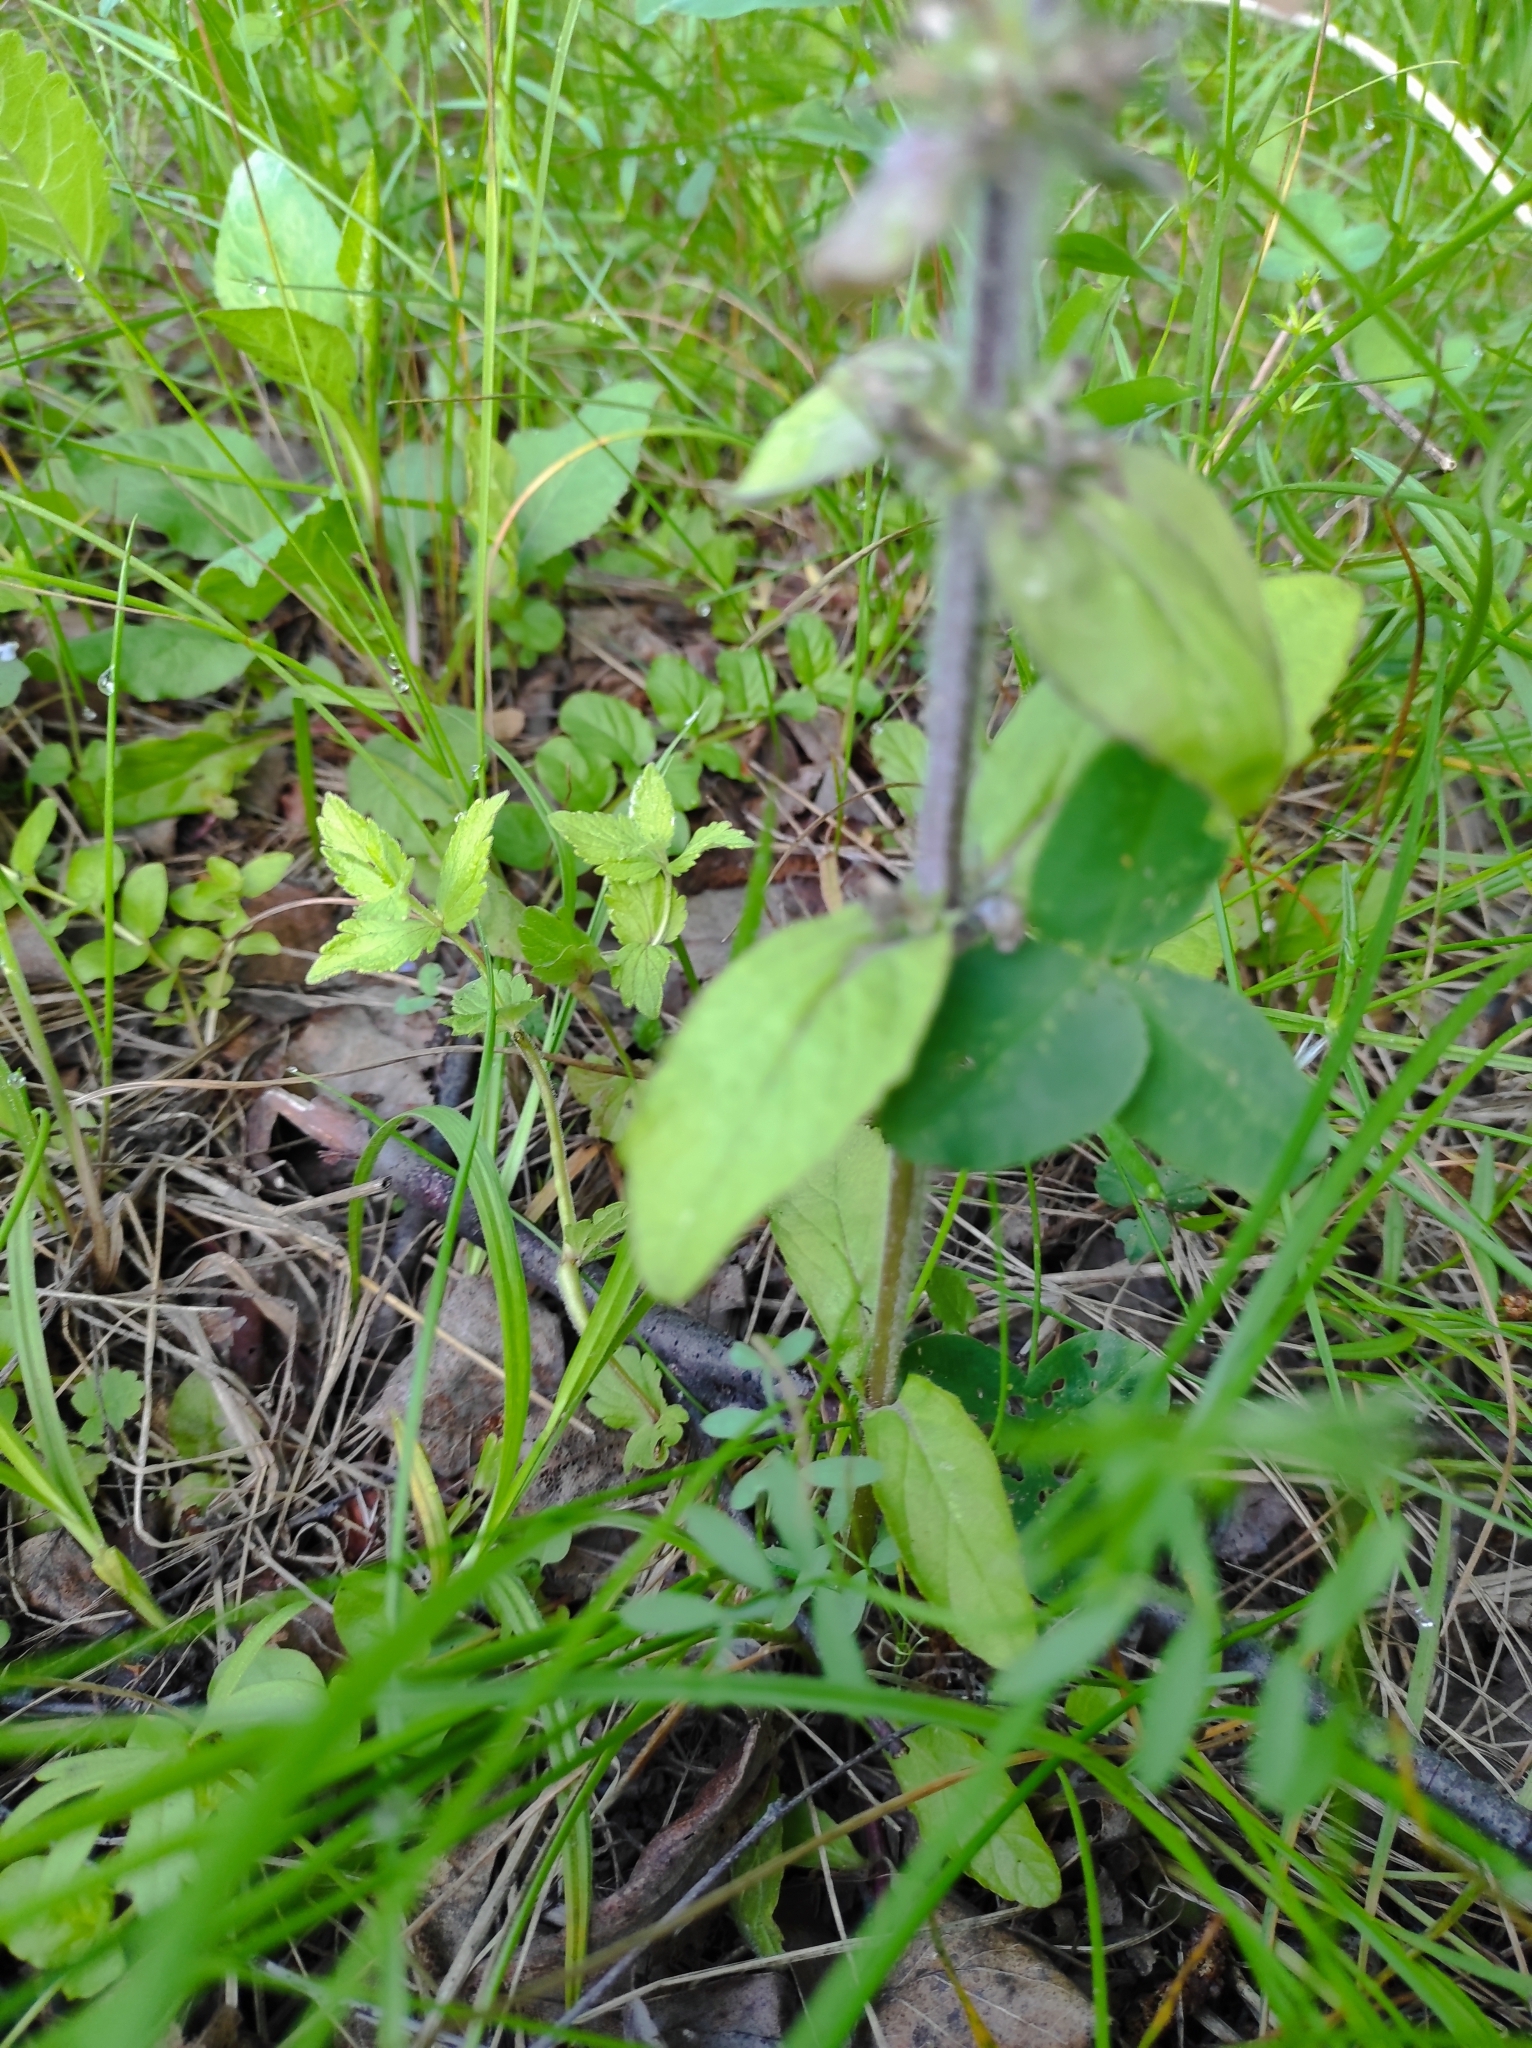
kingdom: Plantae
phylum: Tracheophyta
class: Magnoliopsida
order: Lamiales
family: Lamiaceae
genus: Ajuga
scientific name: Ajuga reptans
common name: Bugle
